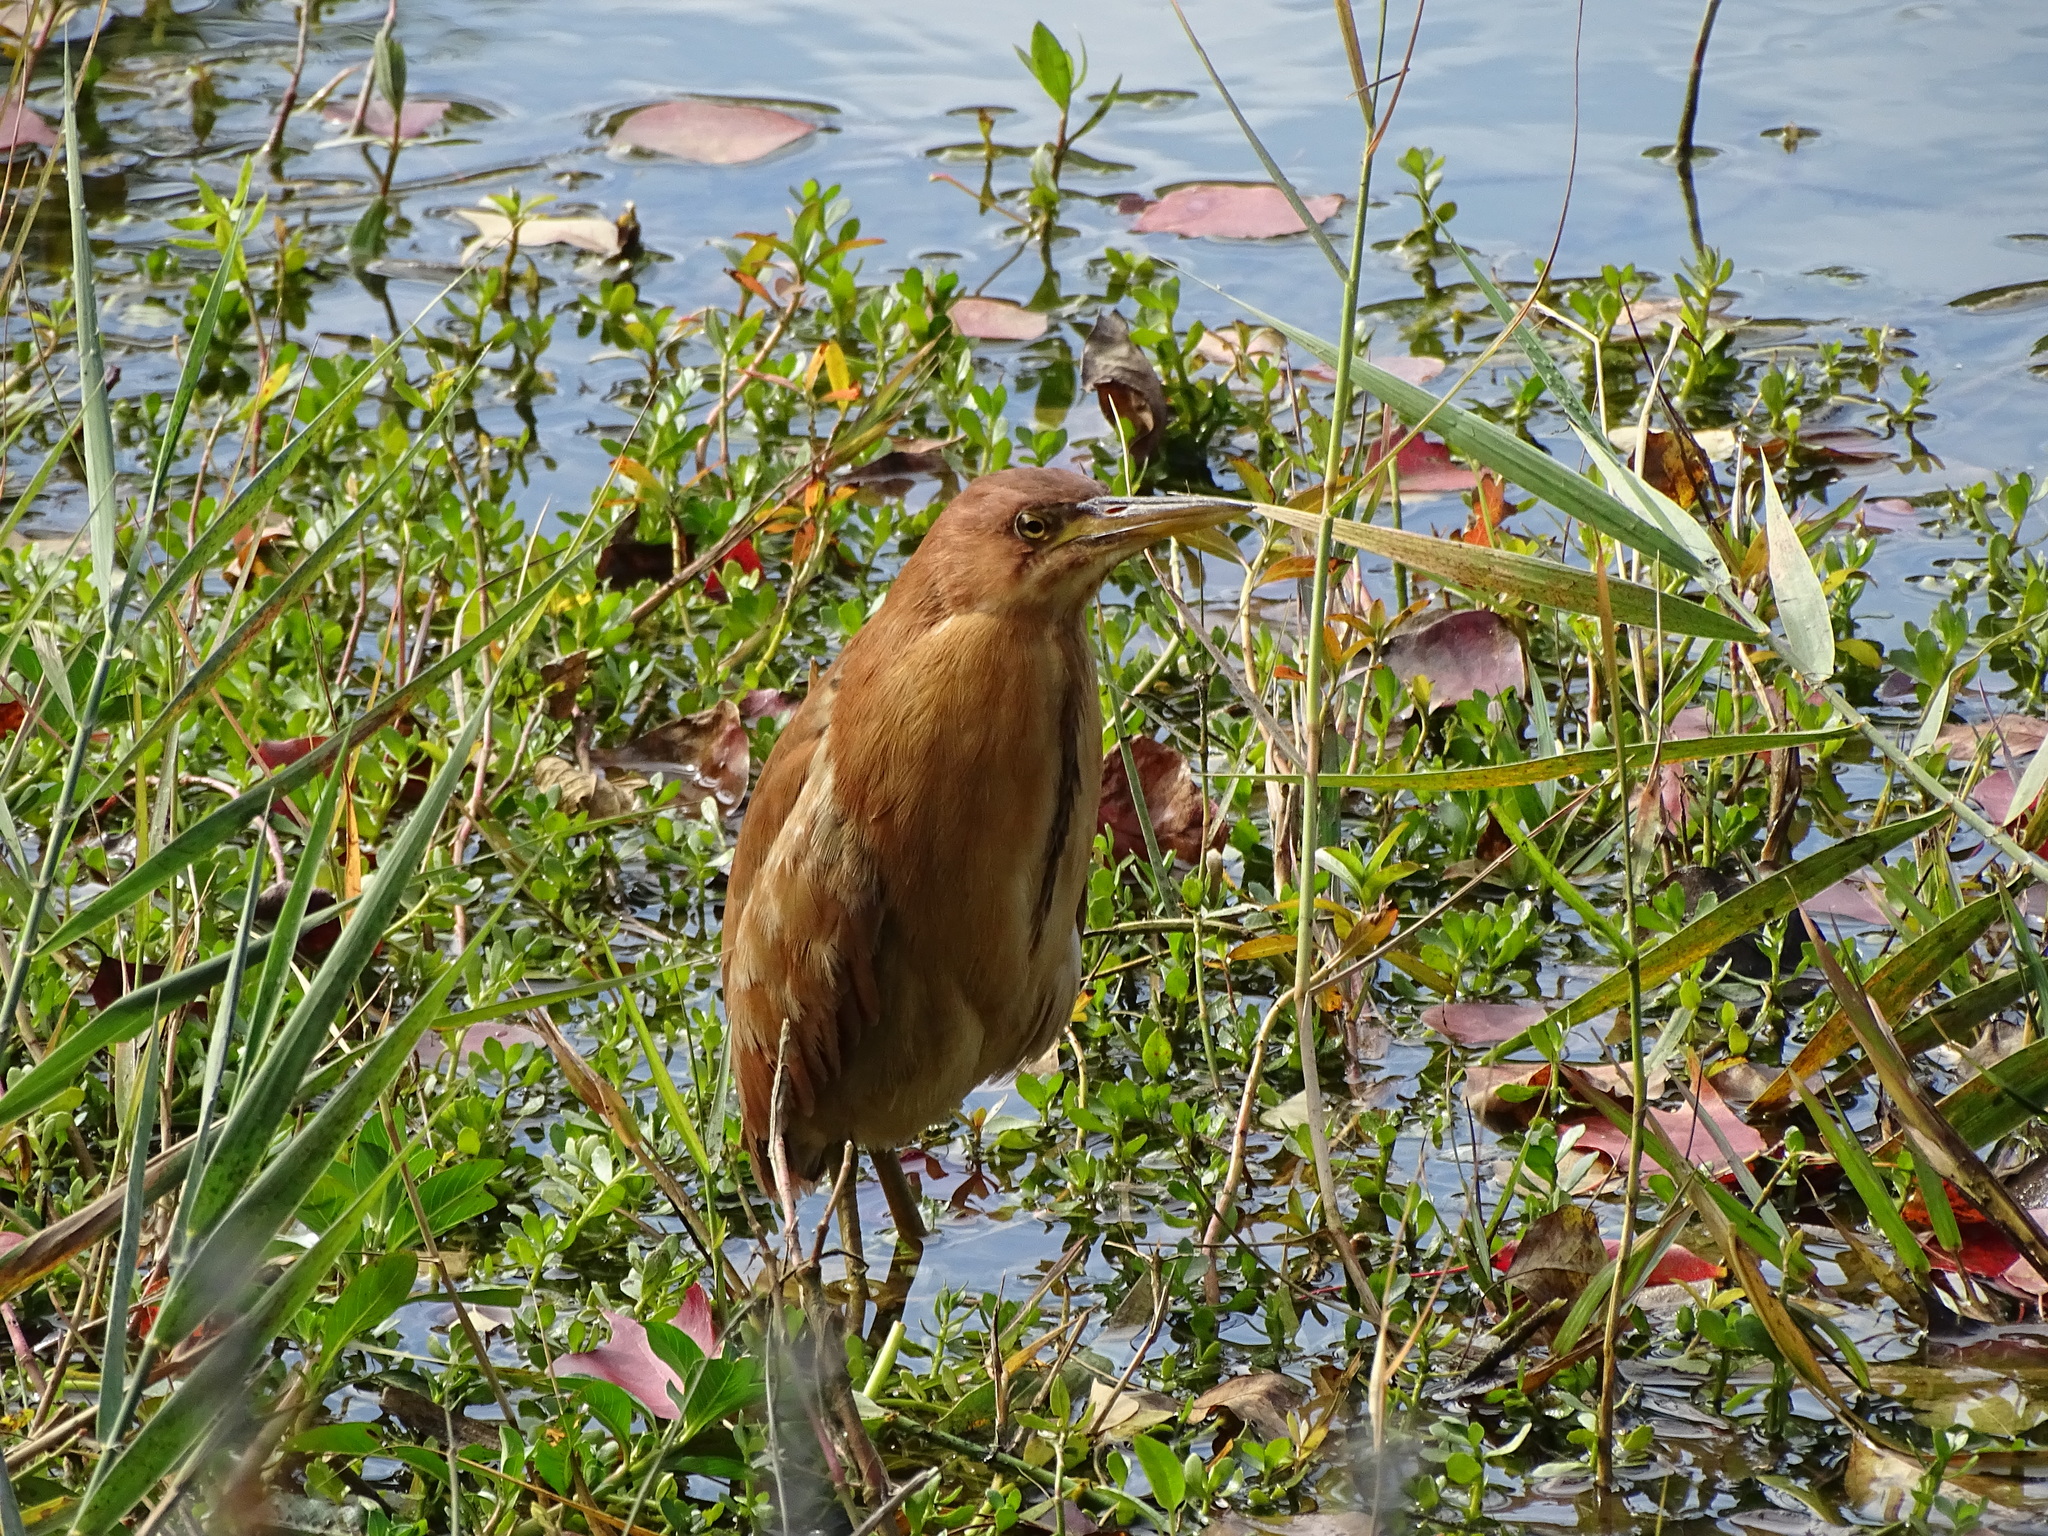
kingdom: Animalia
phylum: Chordata
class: Aves
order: Pelecaniformes
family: Ardeidae
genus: Ixobrychus
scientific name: Ixobrychus cinnamomeus
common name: Cinnamon bittern
